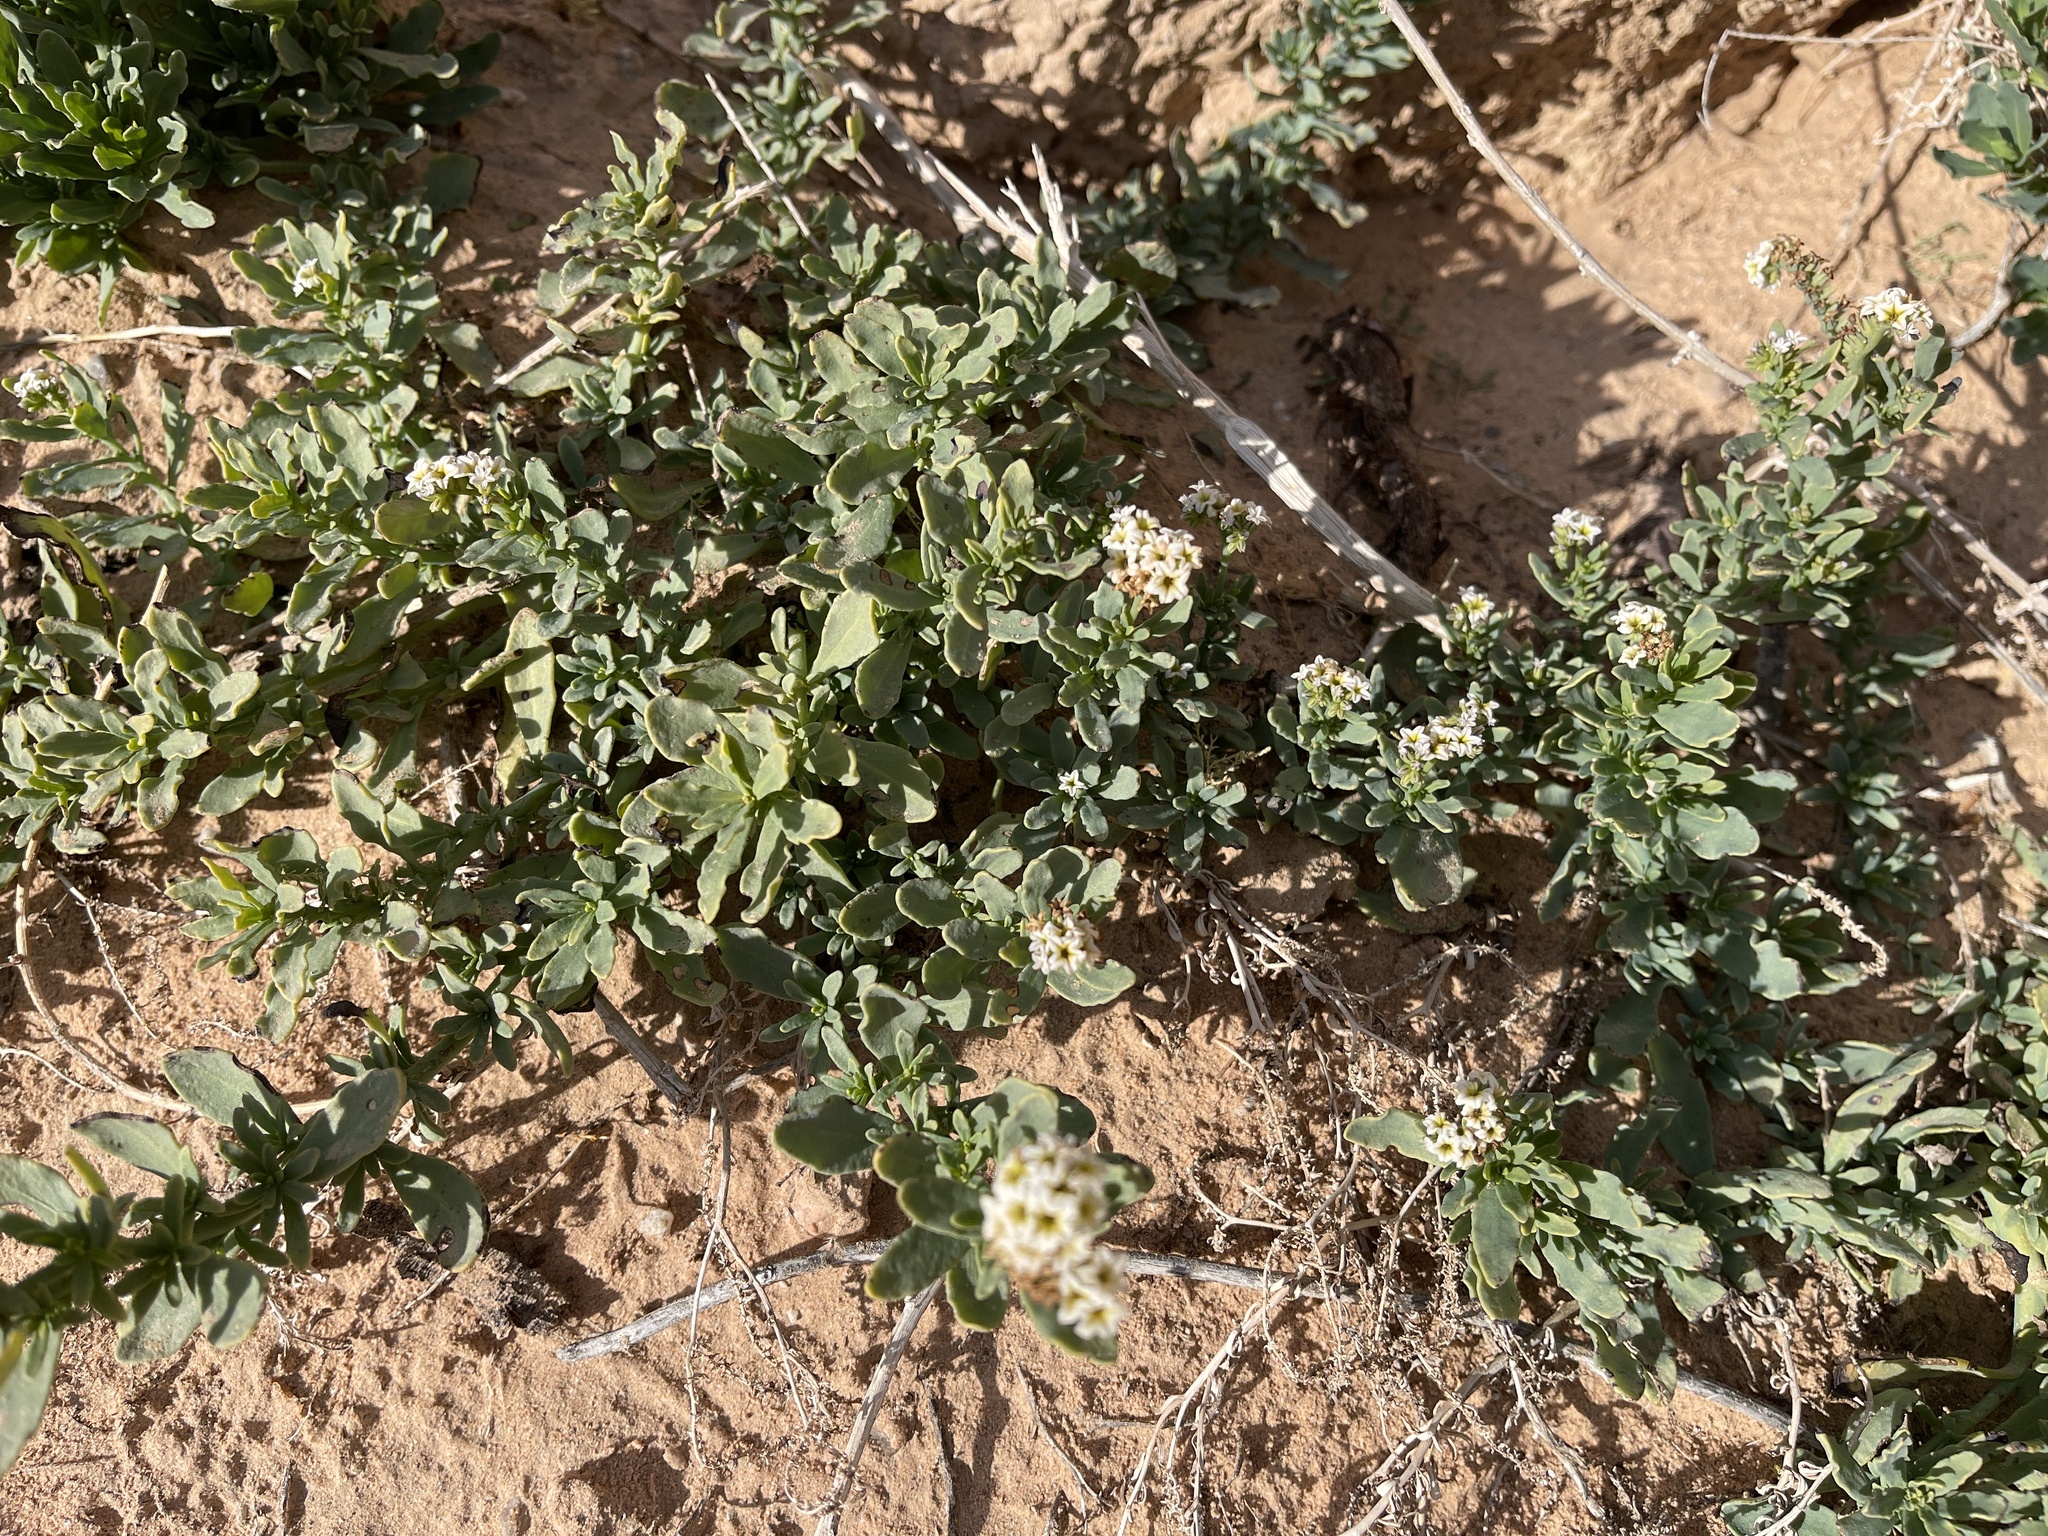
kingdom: Plantae
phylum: Tracheophyta
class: Magnoliopsida
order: Boraginales
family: Heliotropiaceae
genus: Heliotropium
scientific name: Heliotropium curassavicum
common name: Seaside heliotrope
